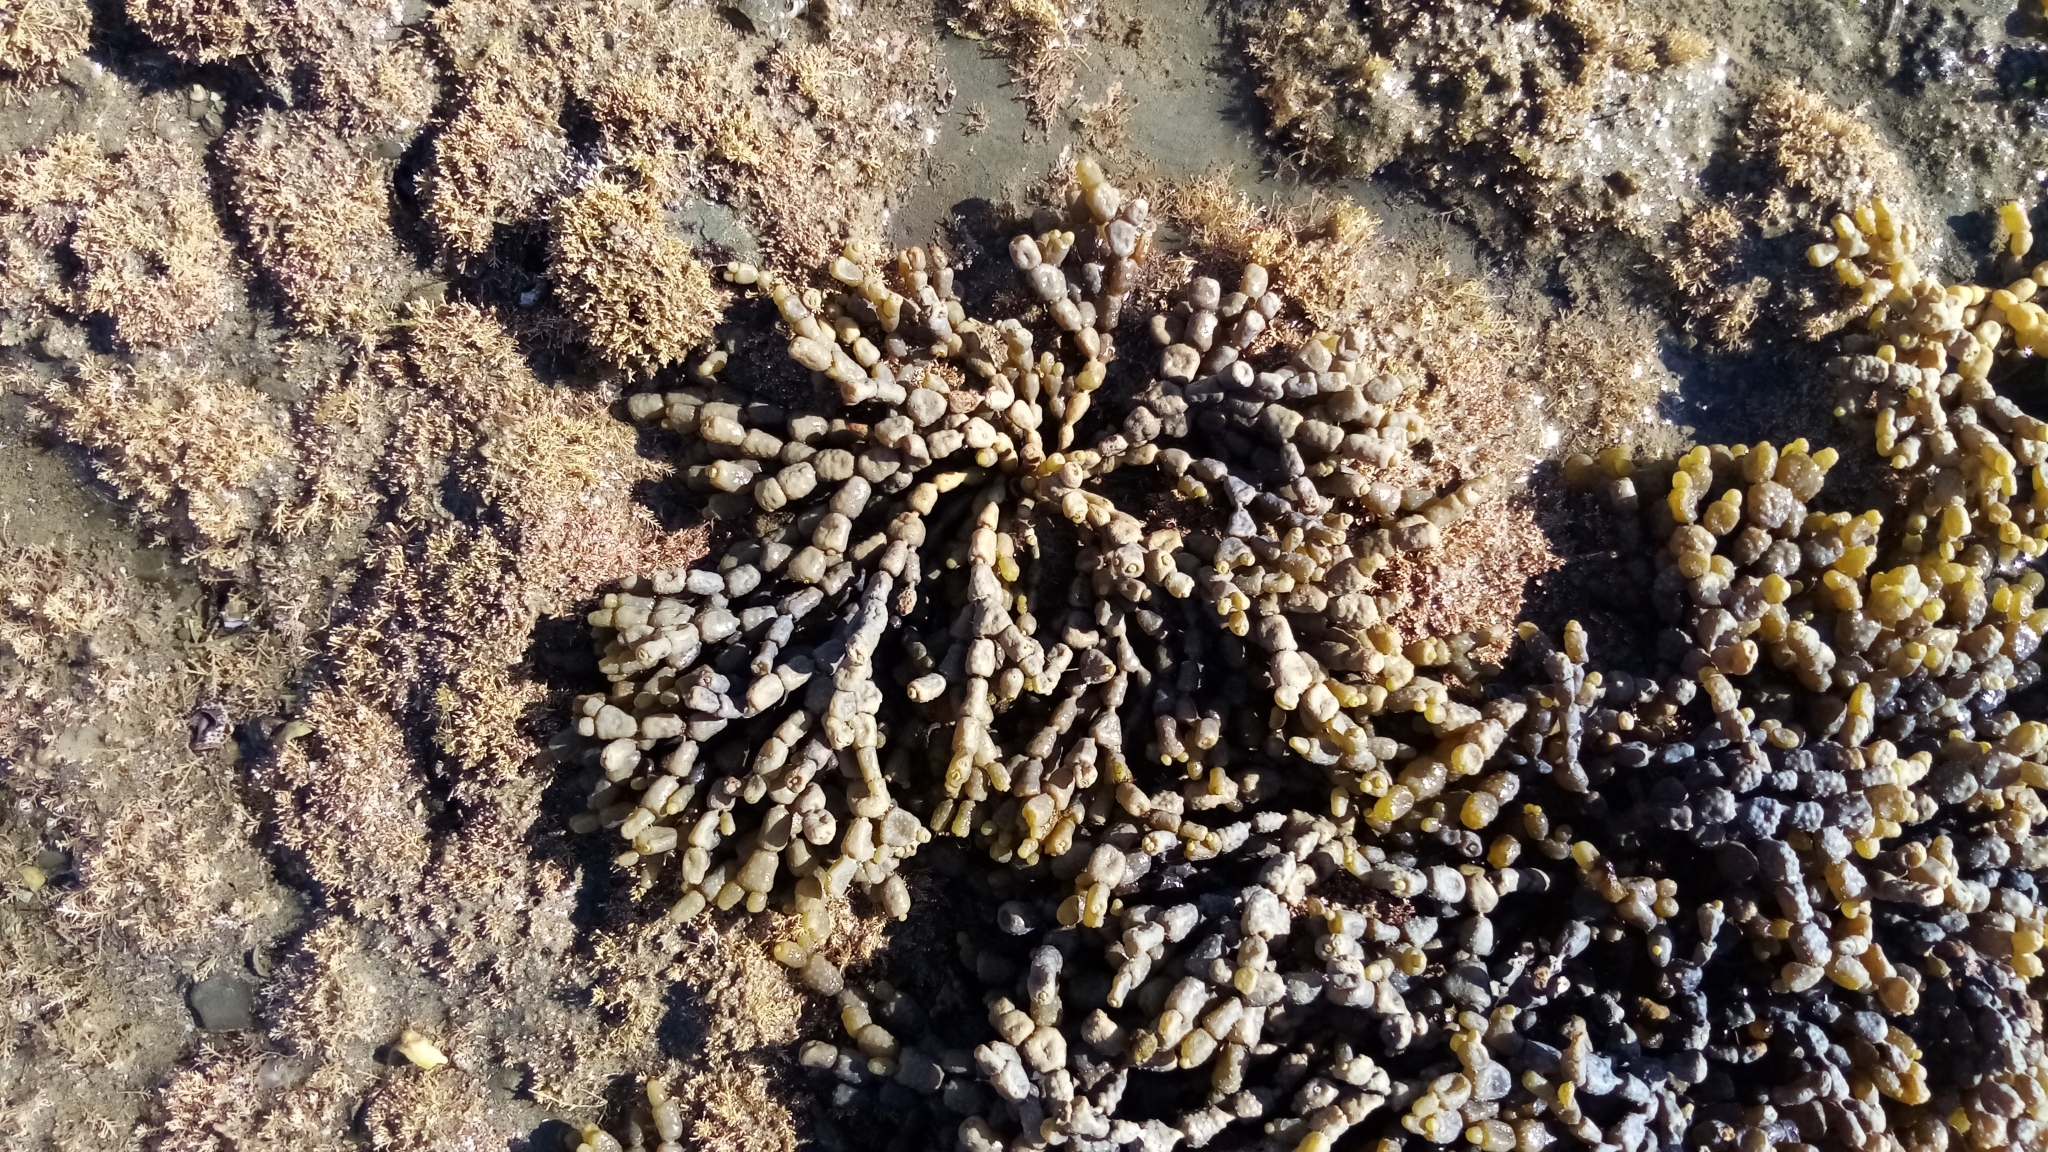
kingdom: Chromista
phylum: Ochrophyta
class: Phaeophyceae
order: Fucales
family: Hormosiraceae
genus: Hormosira
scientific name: Hormosira banksii
